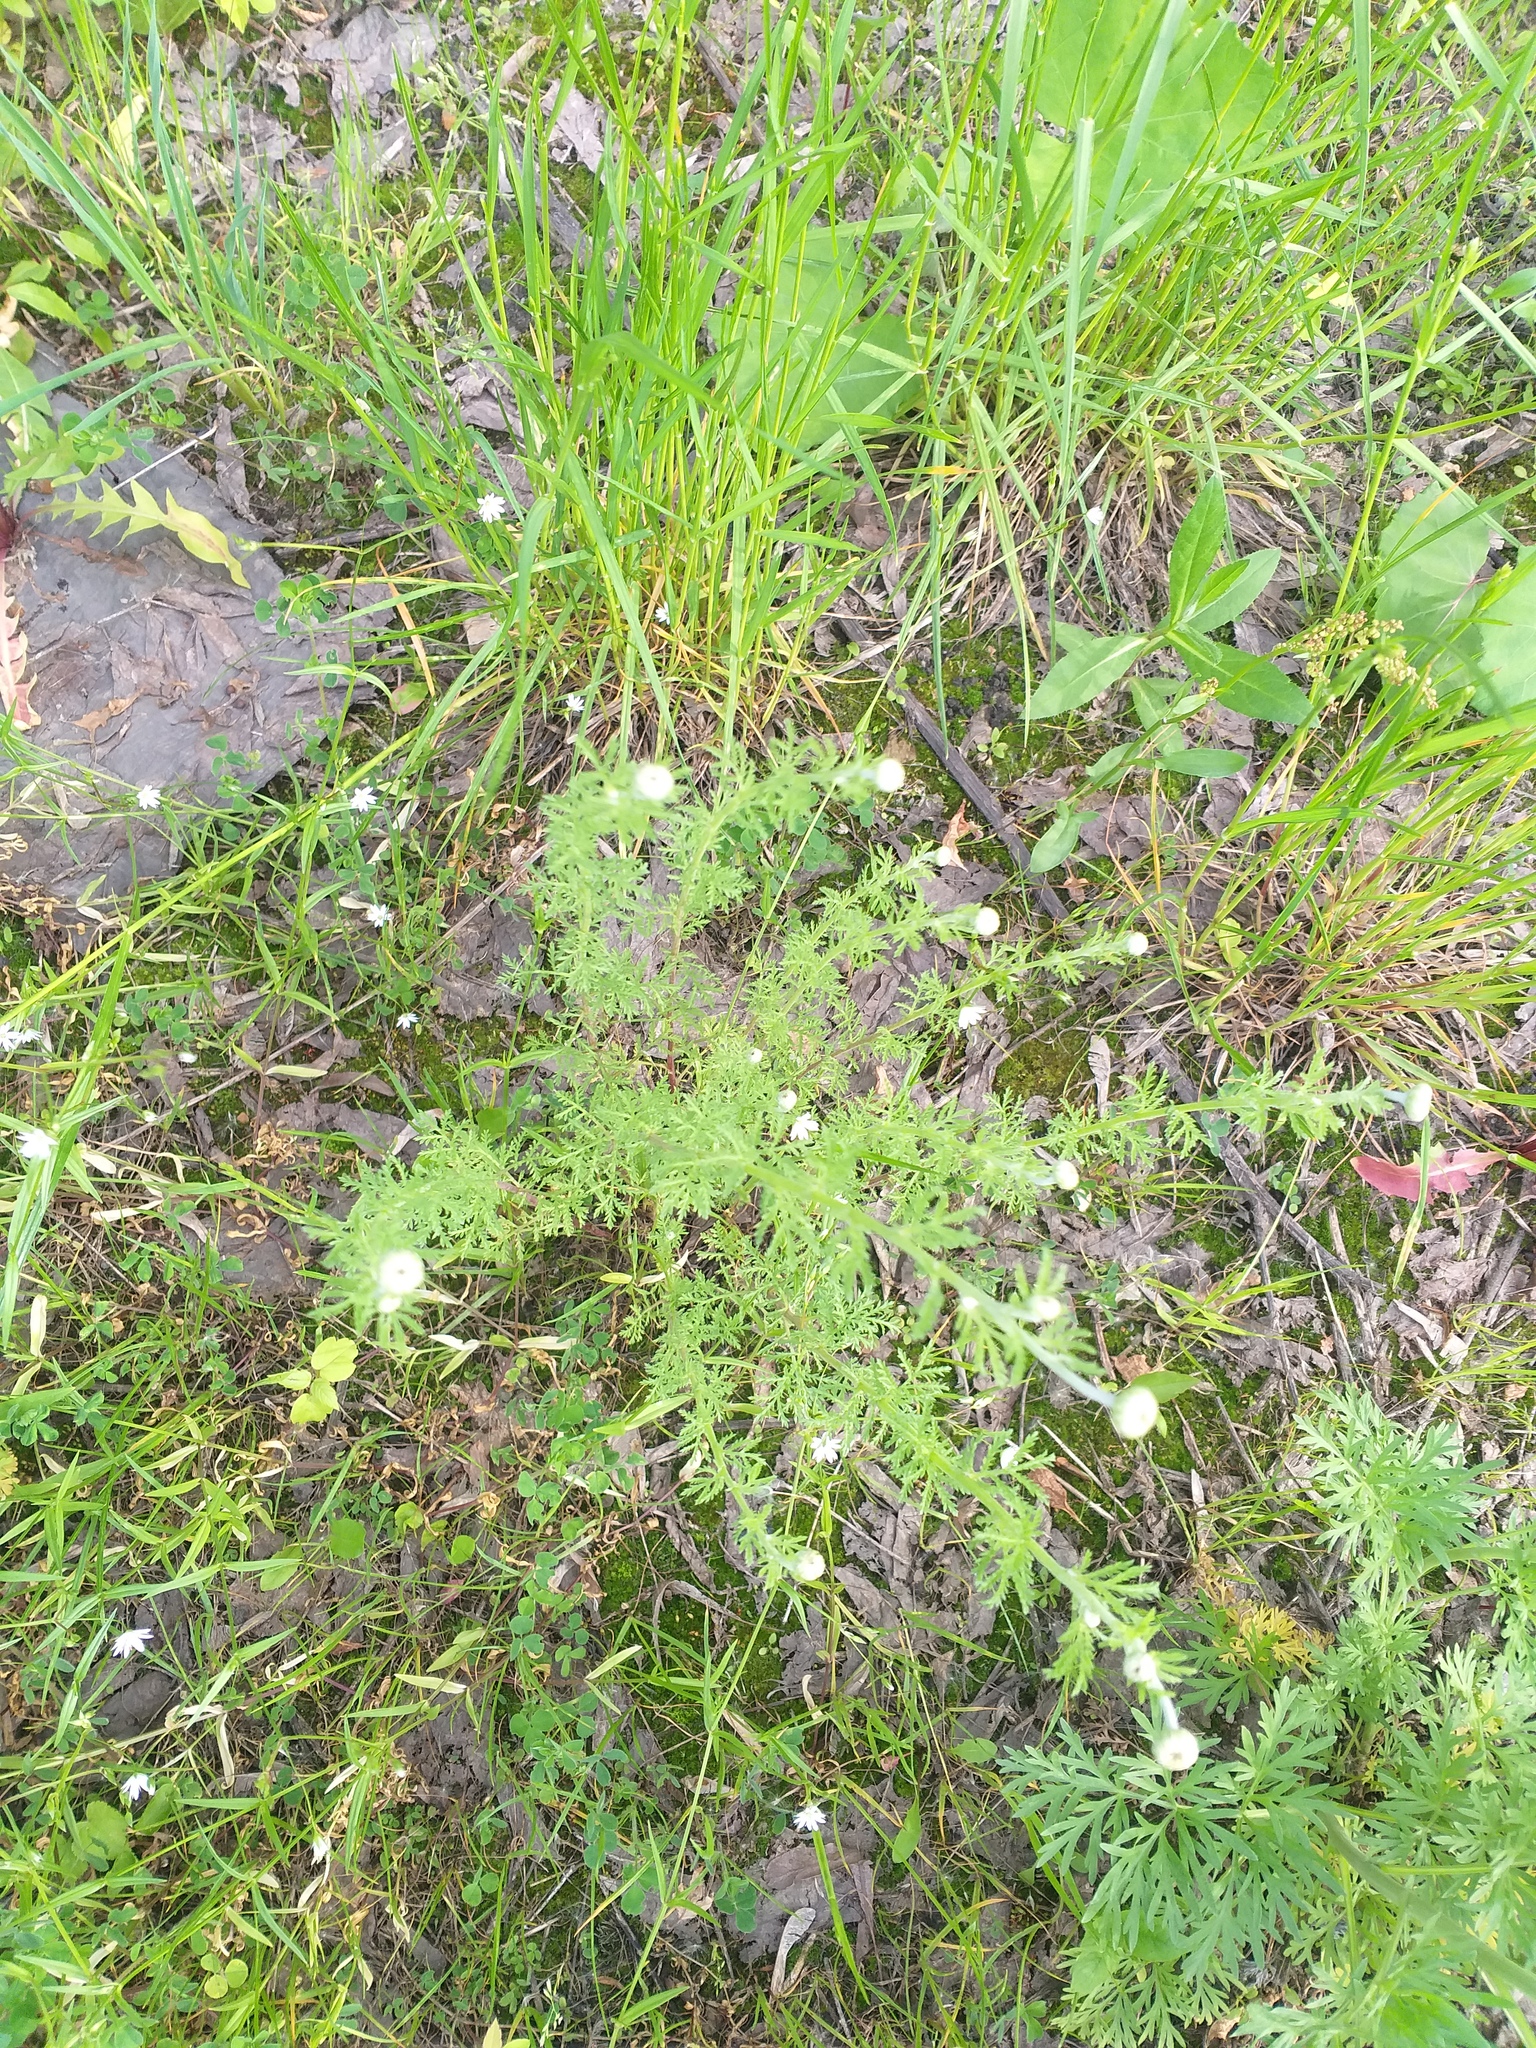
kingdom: Plantae
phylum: Tracheophyta
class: Magnoliopsida
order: Asterales
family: Asteraceae
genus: Cota
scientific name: Cota tinctoria
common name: Golden chamomile
